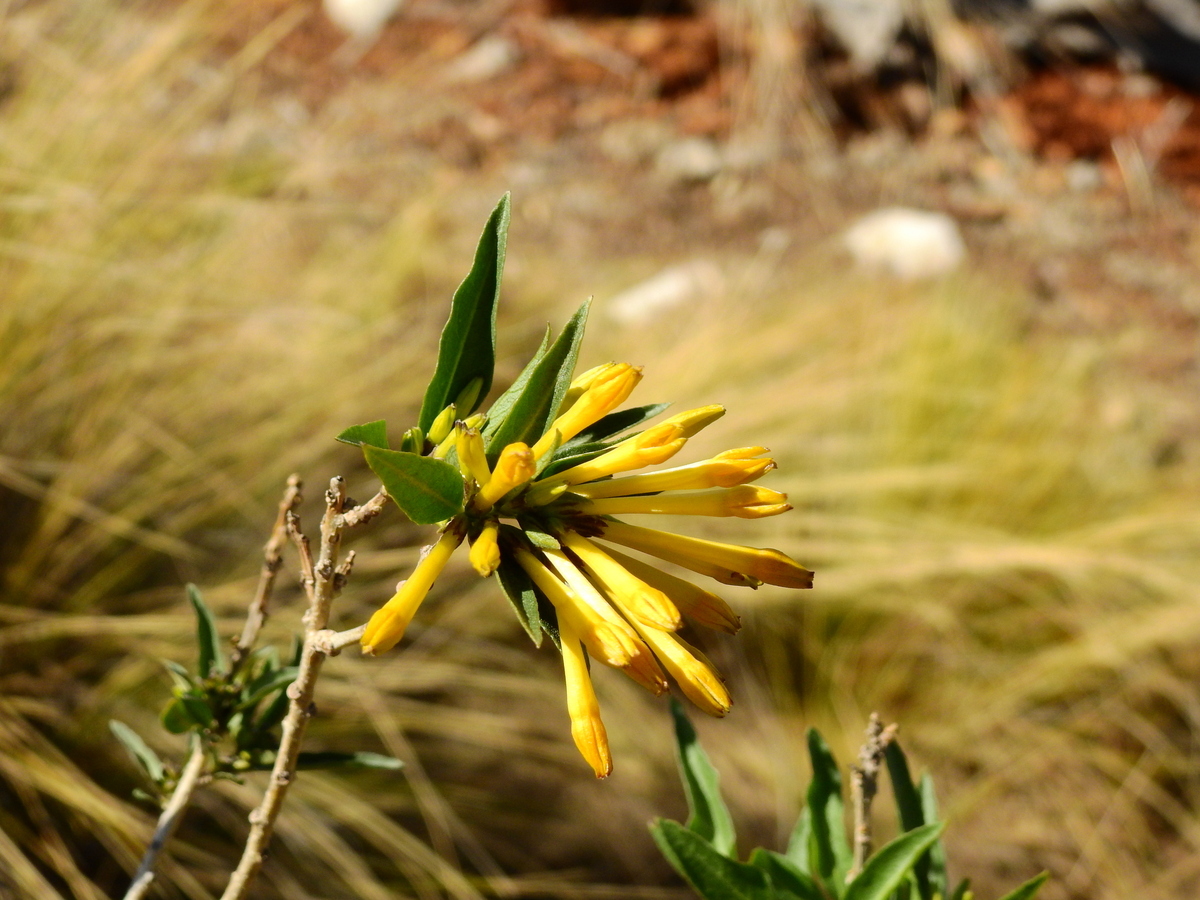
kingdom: Plantae
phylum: Tracheophyta
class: Magnoliopsida
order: Solanales
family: Solanaceae
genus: Cestrum
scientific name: Cestrum parqui
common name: Chilean cestrum
